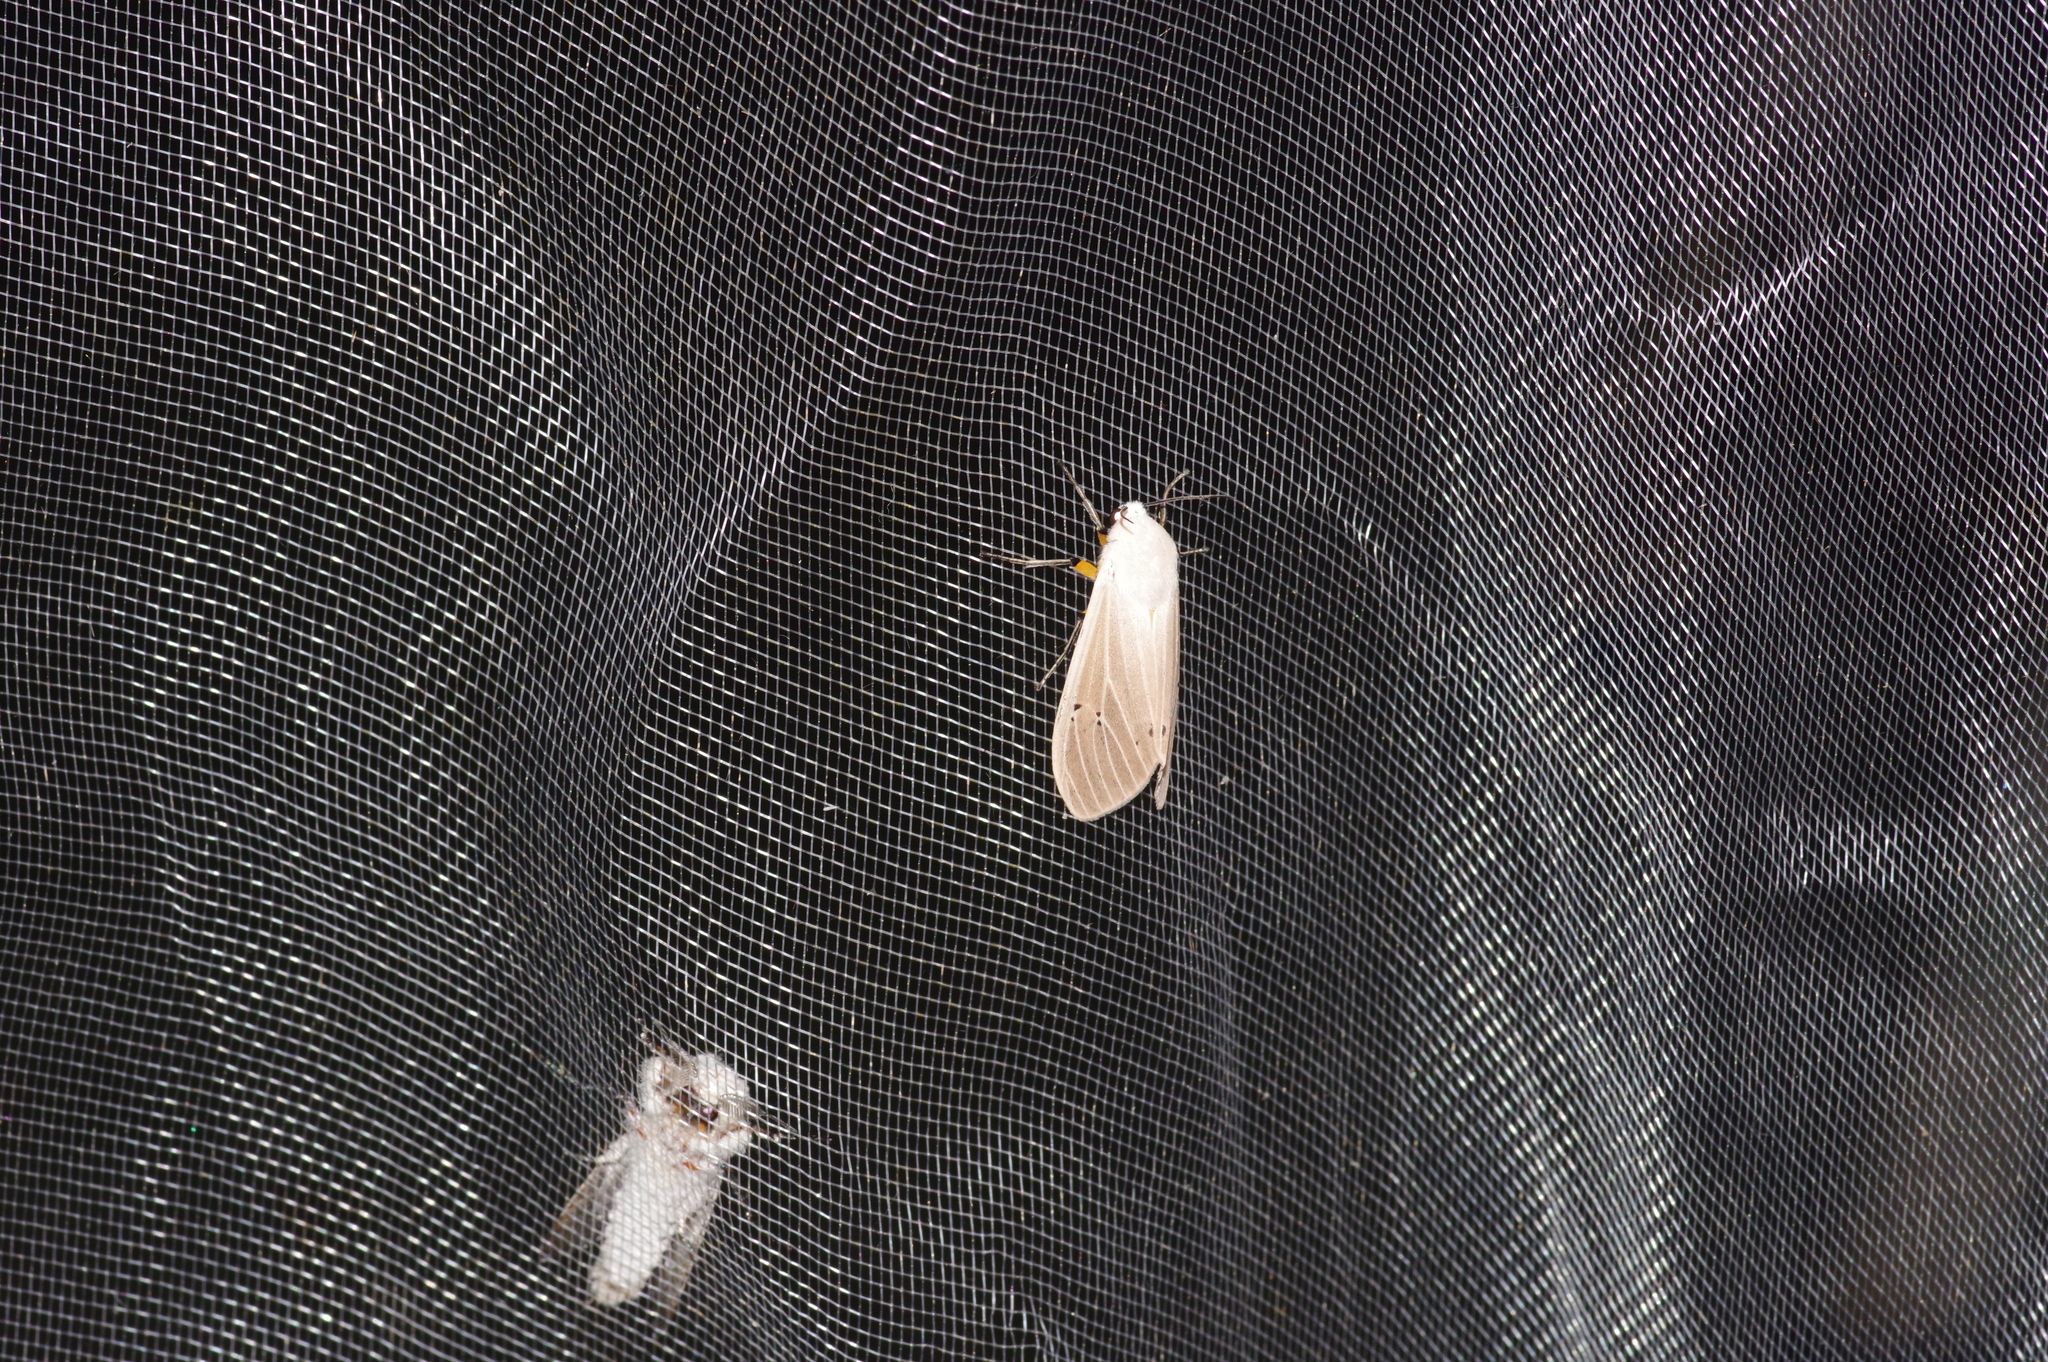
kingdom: Animalia
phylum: Arthropoda
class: Insecta
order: Lepidoptera
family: Erebidae
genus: Creatonotos
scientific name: Creatonotos transiens
